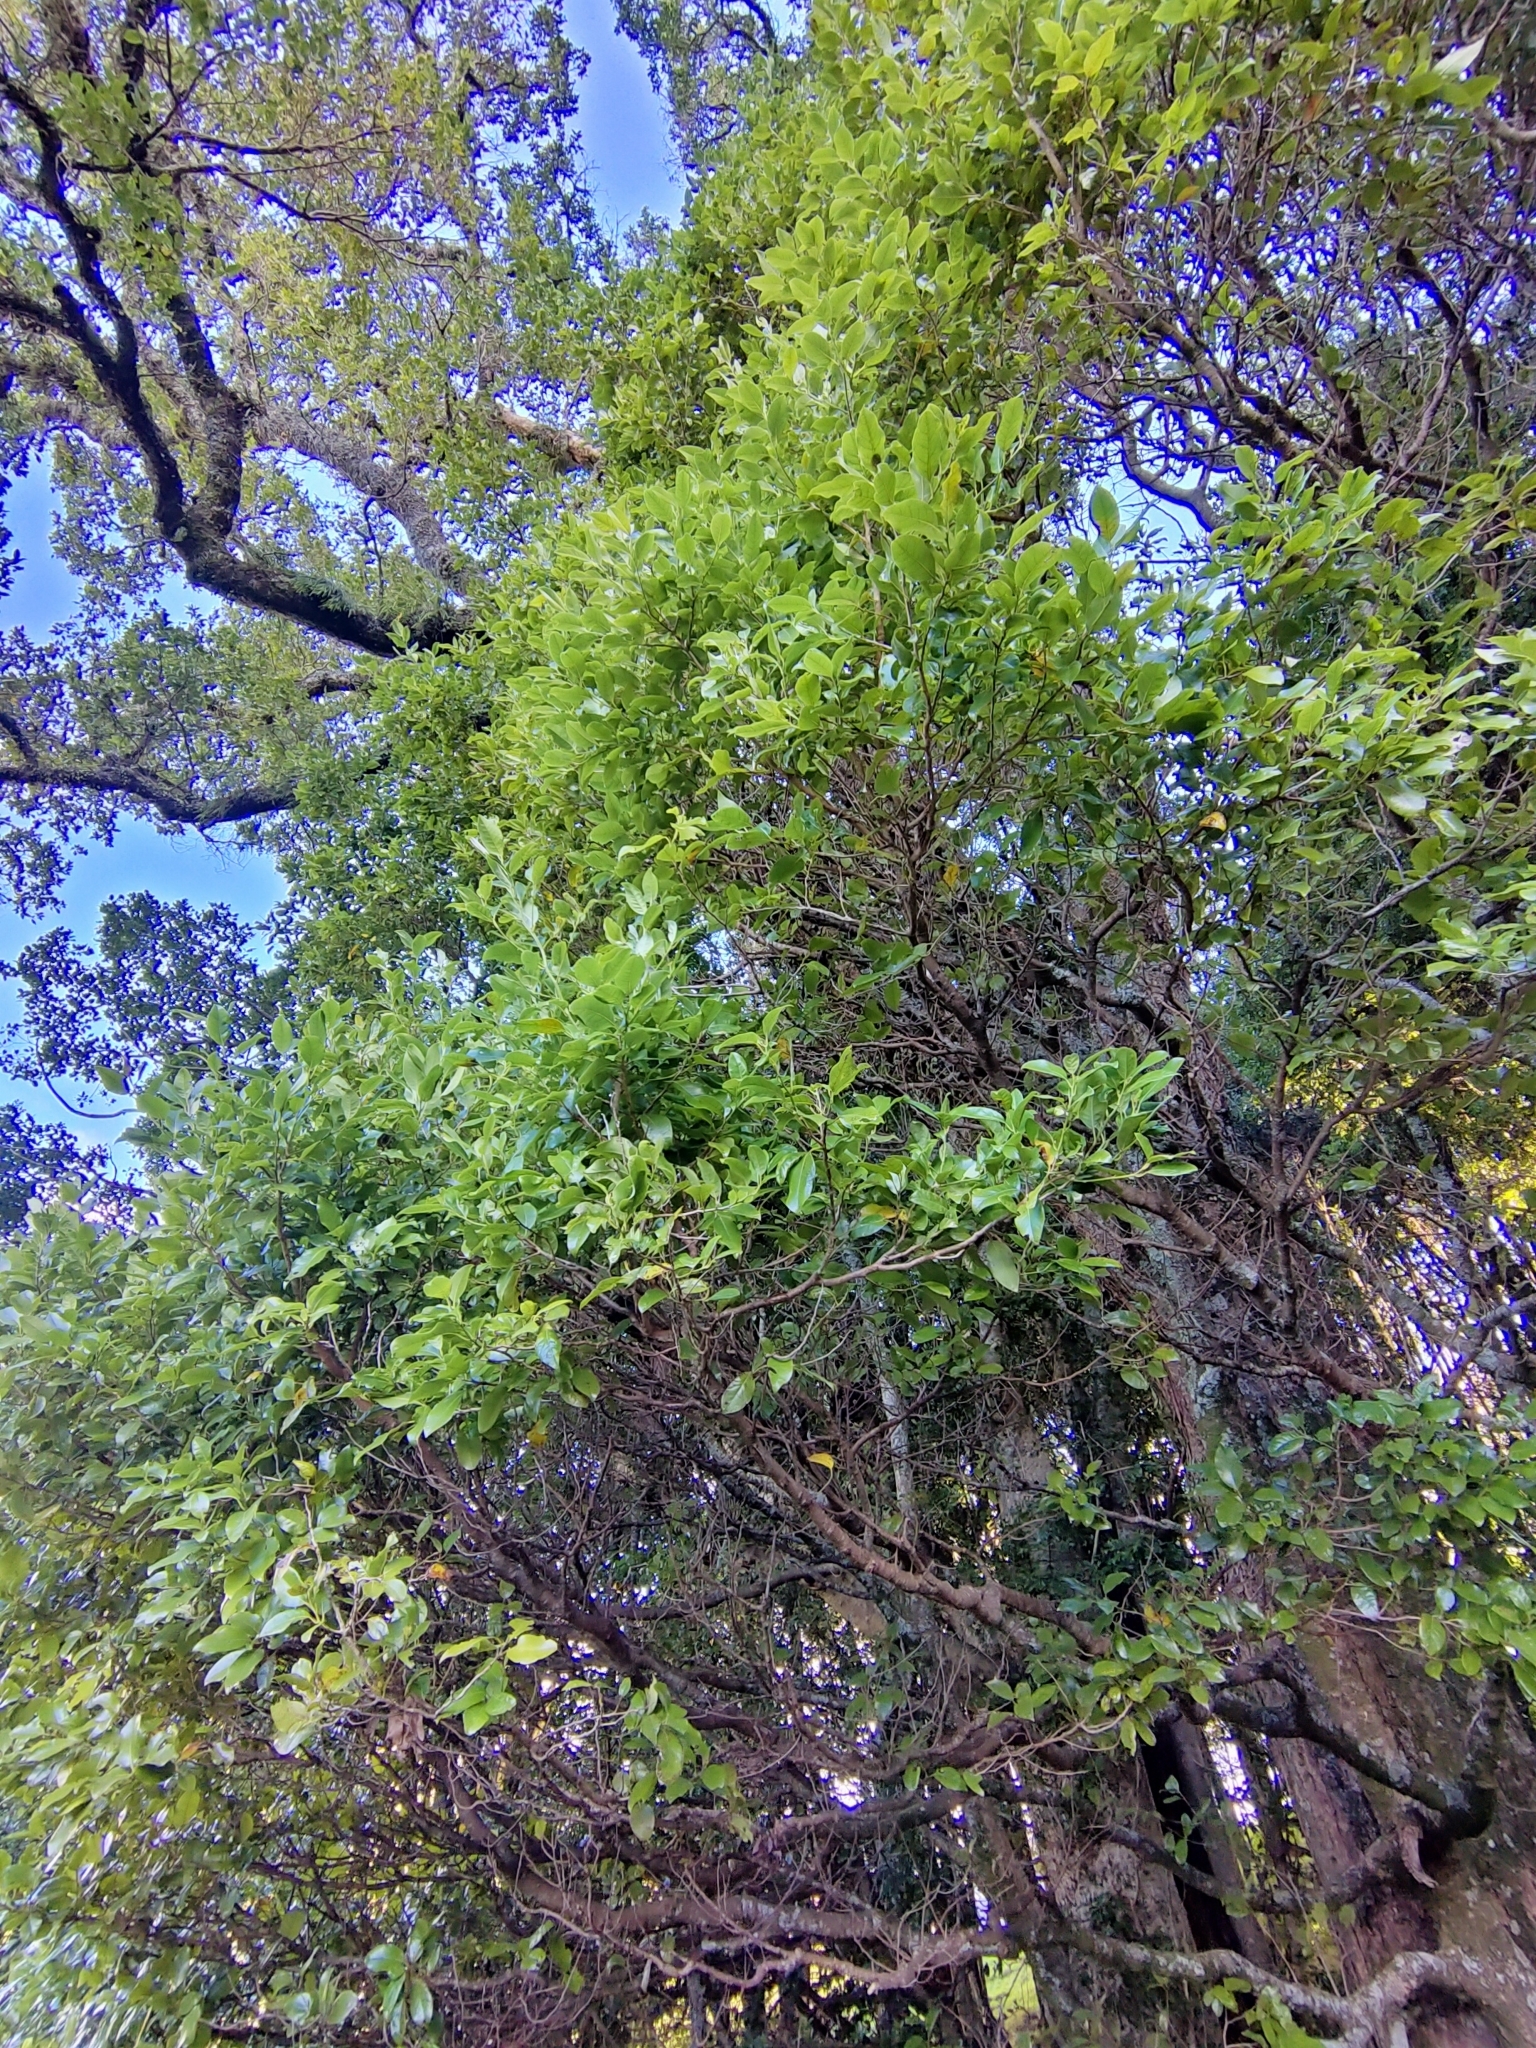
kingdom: Plantae
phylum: Tracheophyta
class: Magnoliopsida
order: Laurales
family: Lauraceae
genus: Litsea
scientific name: Litsea calicaris
